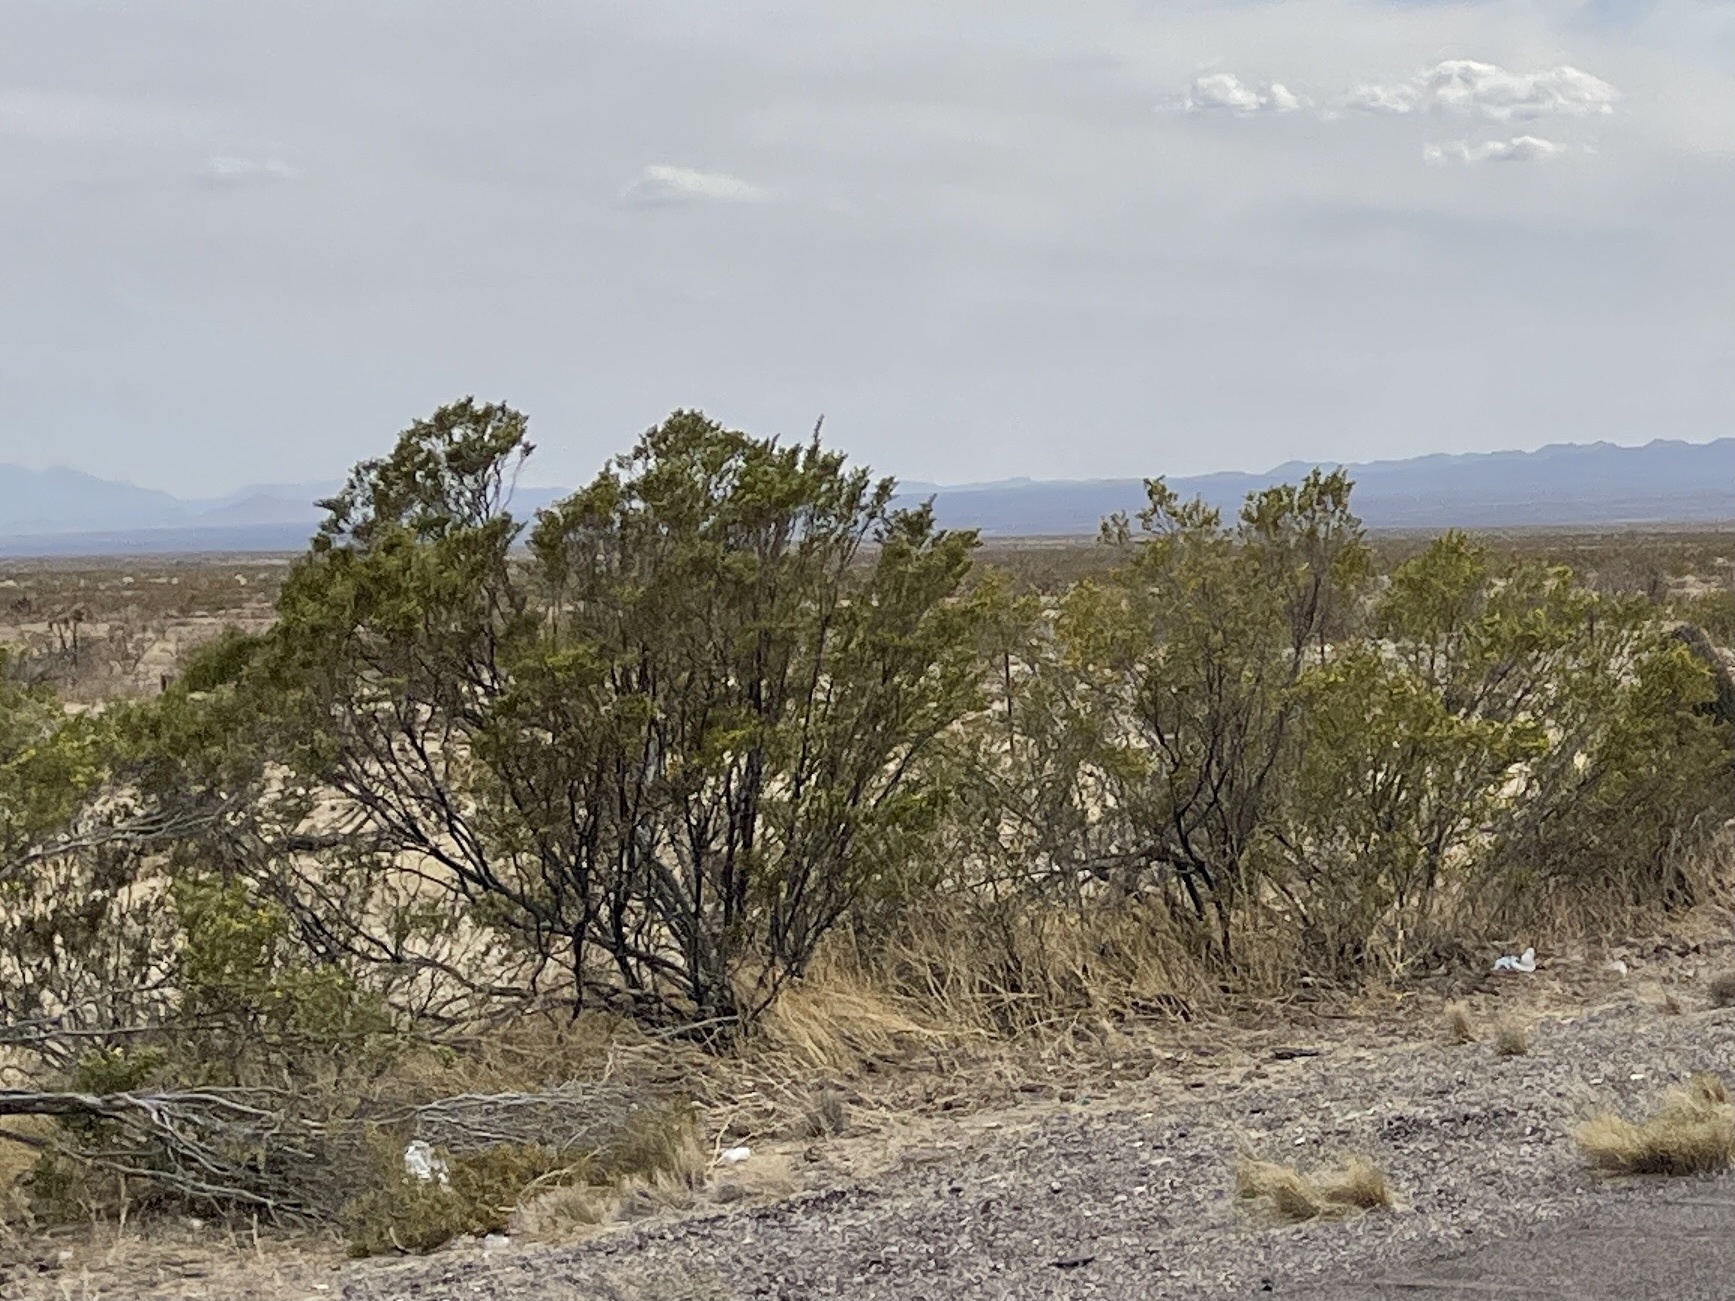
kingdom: Plantae
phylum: Tracheophyta
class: Magnoliopsida
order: Zygophyllales
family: Zygophyllaceae
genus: Larrea
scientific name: Larrea tridentata
